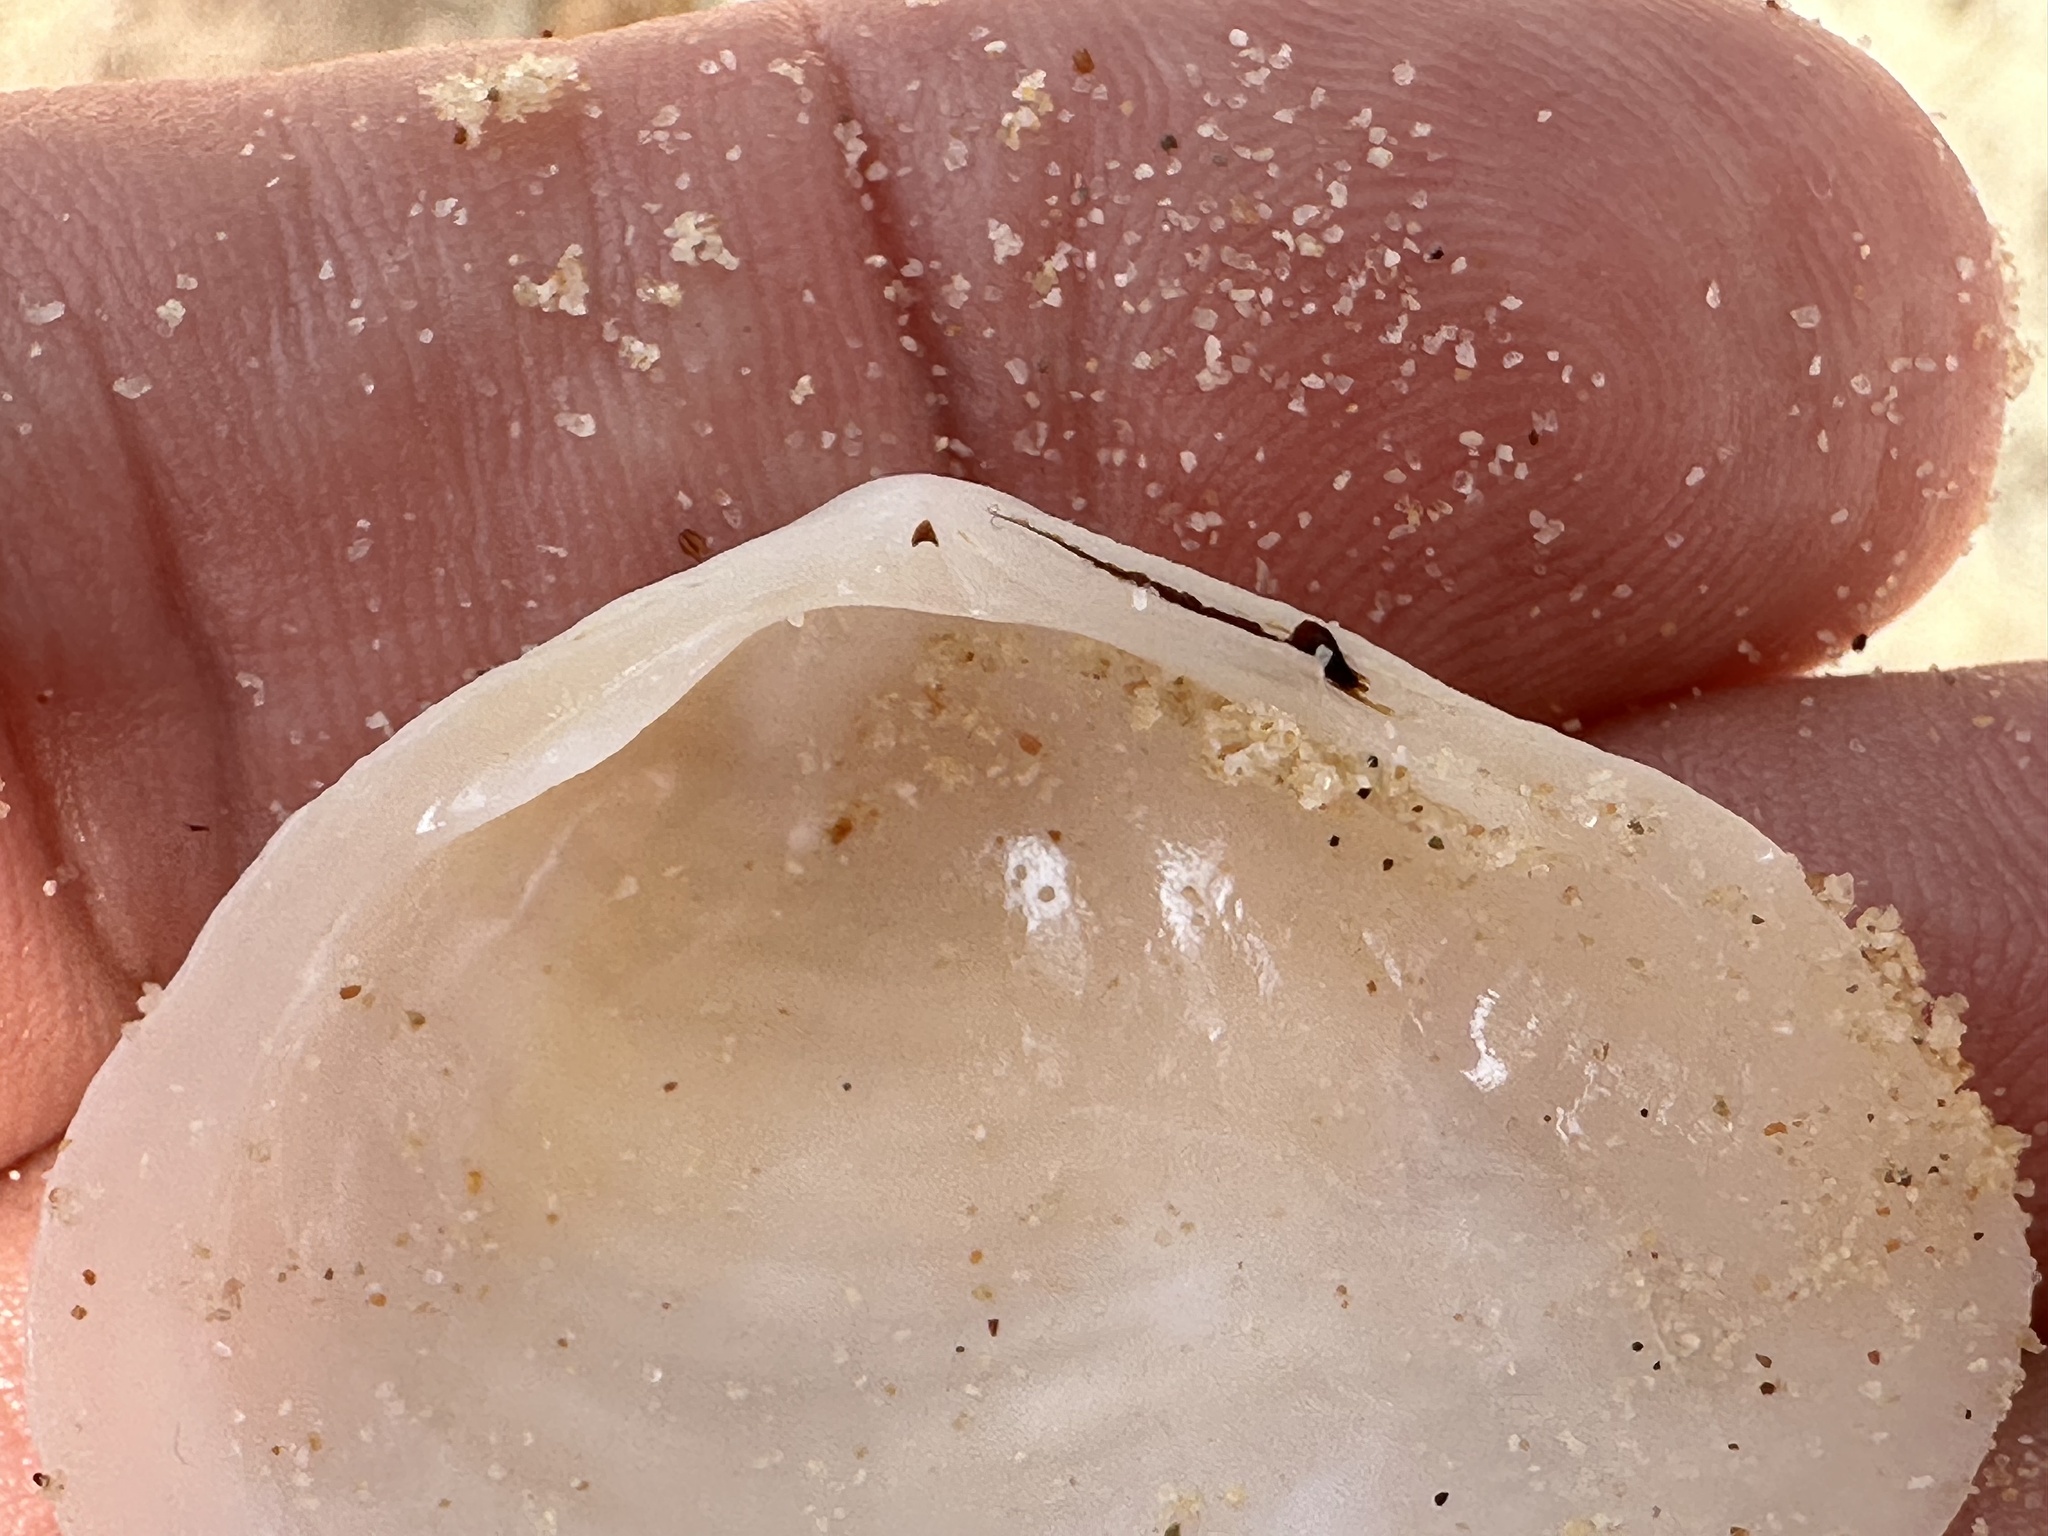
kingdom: Animalia
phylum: Mollusca
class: Bivalvia
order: Cardiida
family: Tellinidae
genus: Quidnipagus
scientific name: Quidnipagus palatam
